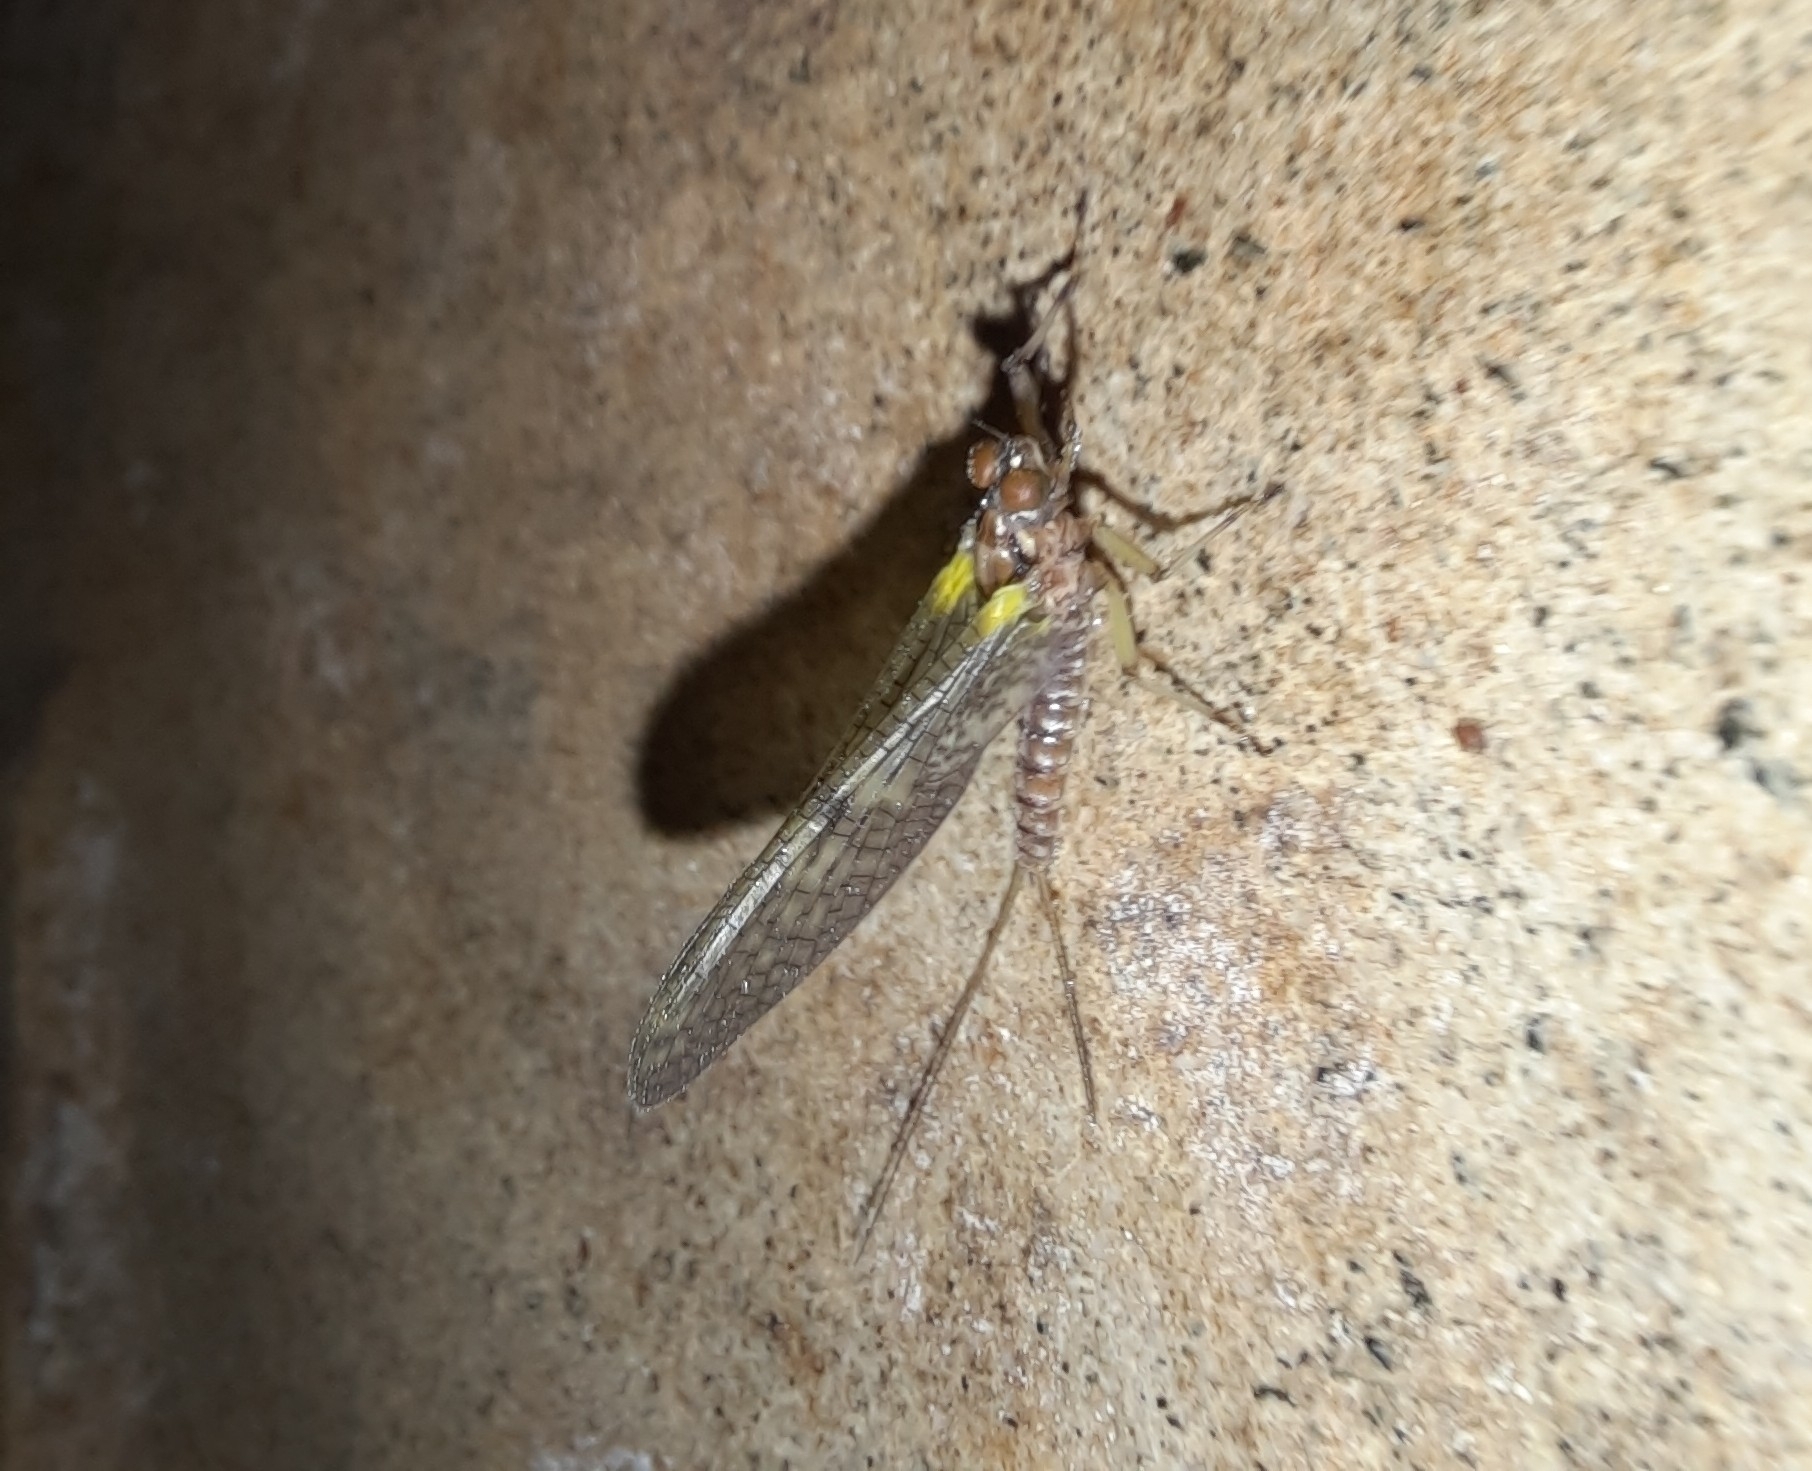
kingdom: Animalia
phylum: Arthropoda
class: Insecta
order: Ephemeroptera
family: Coloburiscidae
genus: Coloburiscus
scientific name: Coloburiscus humeralis
